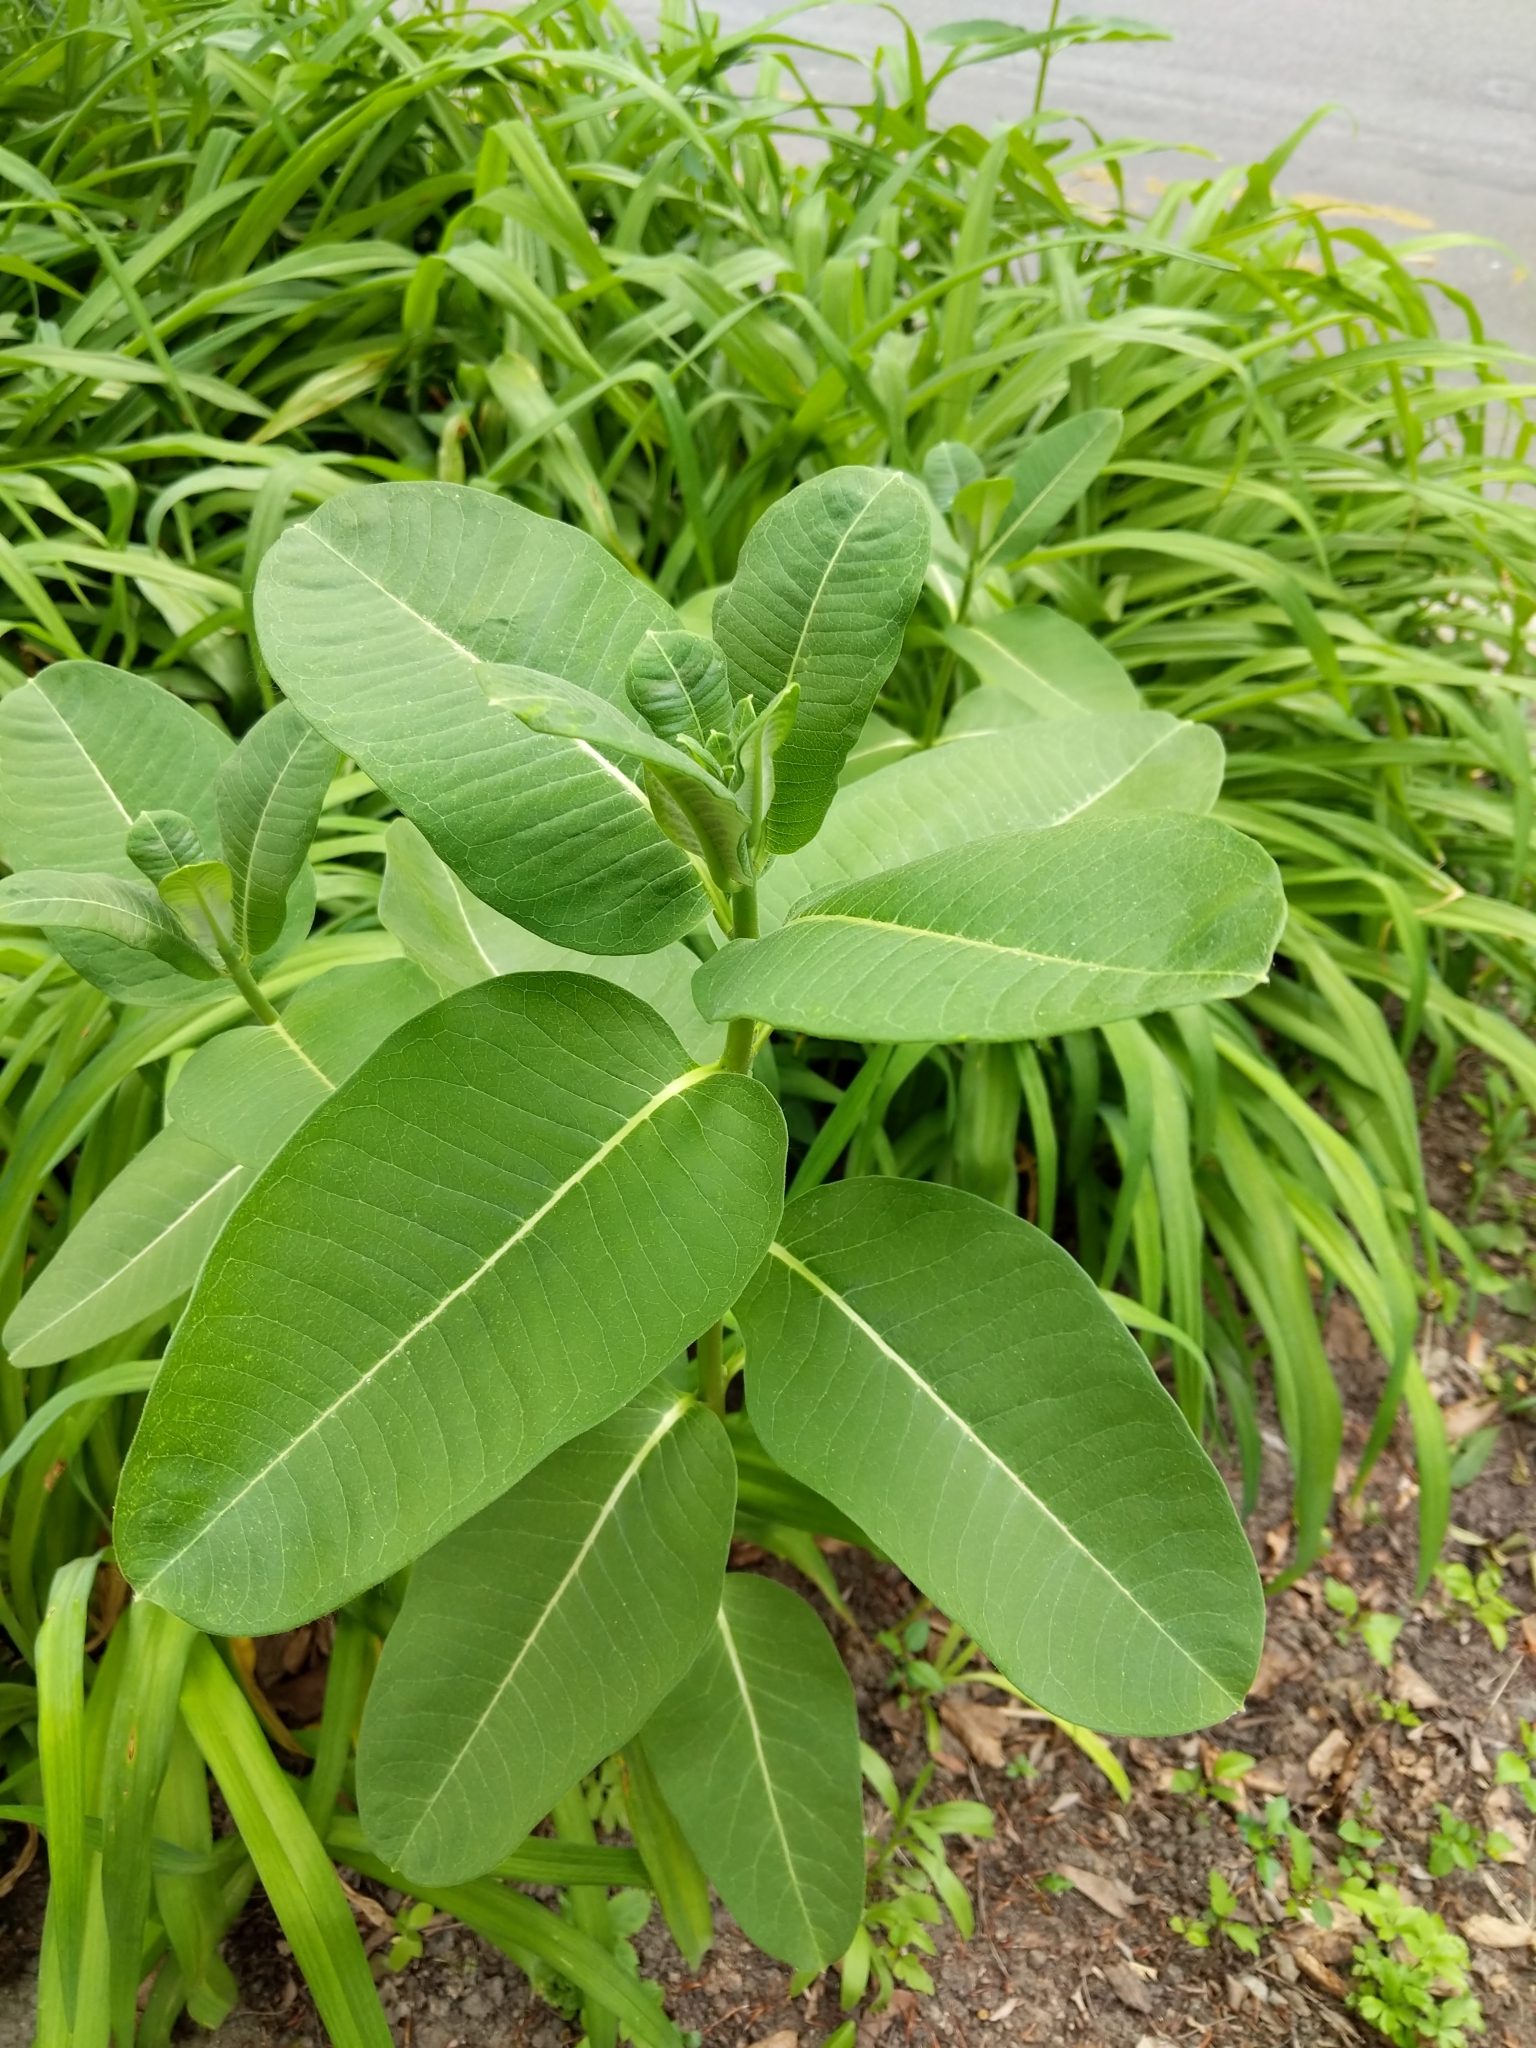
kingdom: Plantae
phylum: Tracheophyta
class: Magnoliopsida
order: Gentianales
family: Apocynaceae
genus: Asclepias
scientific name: Asclepias syriaca
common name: Common milkweed
